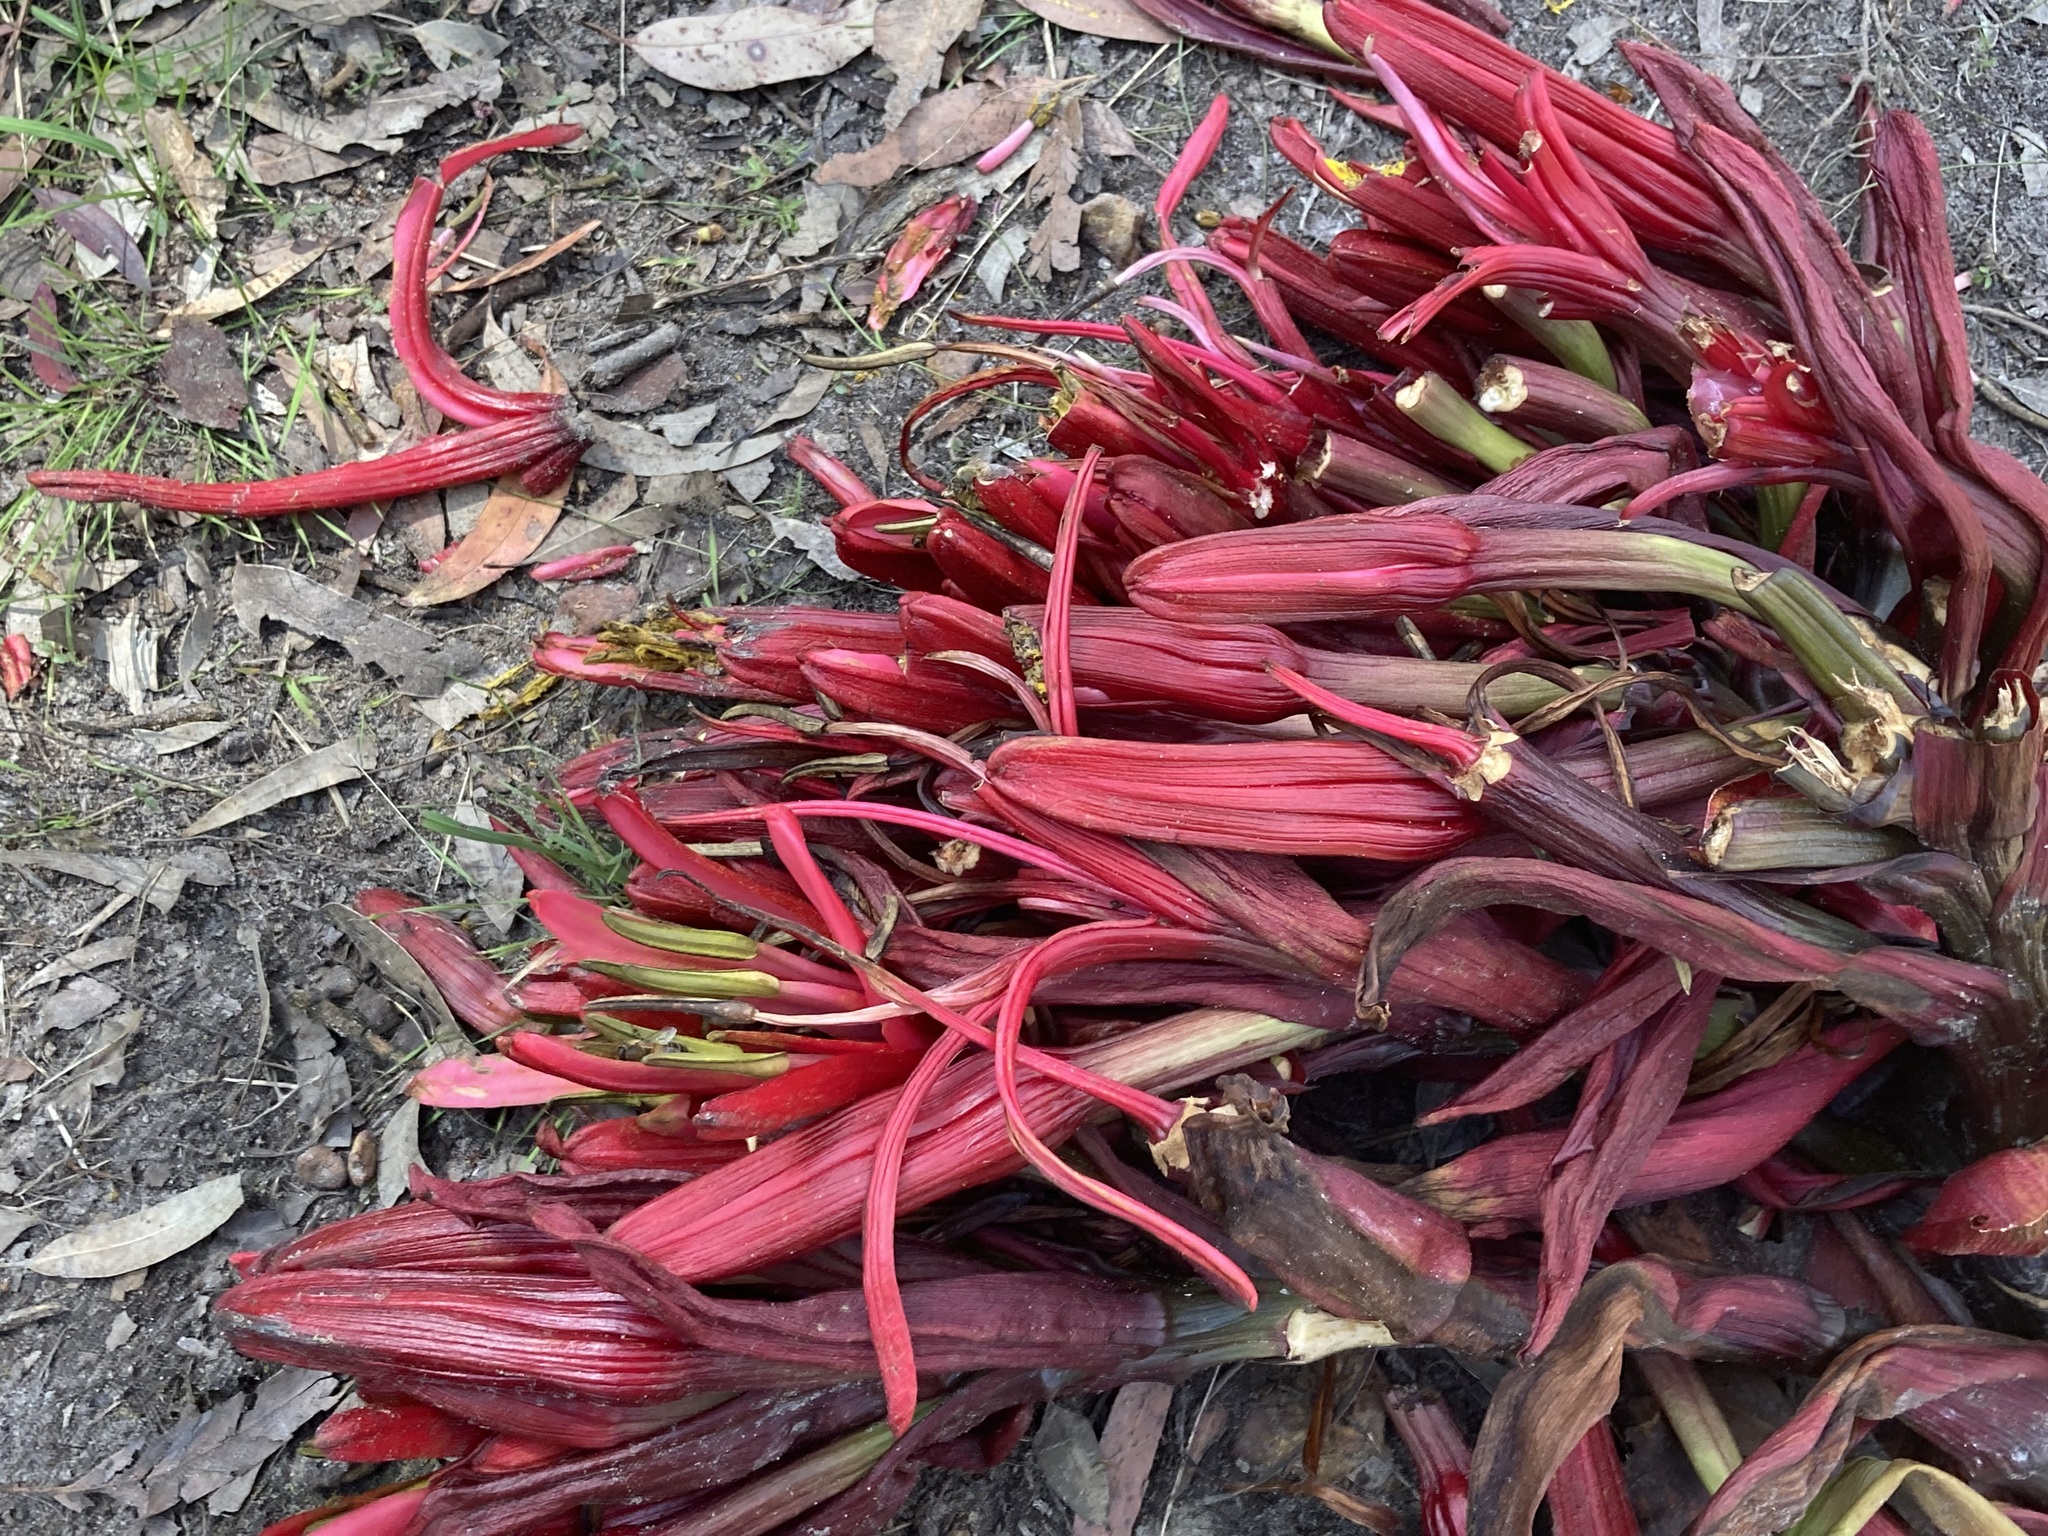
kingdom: Plantae
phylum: Tracheophyta
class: Liliopsida
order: Asparagales
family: Doryanthaceae
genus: Doryanthes
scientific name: Doryanthes excelsa
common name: Giant-lily
